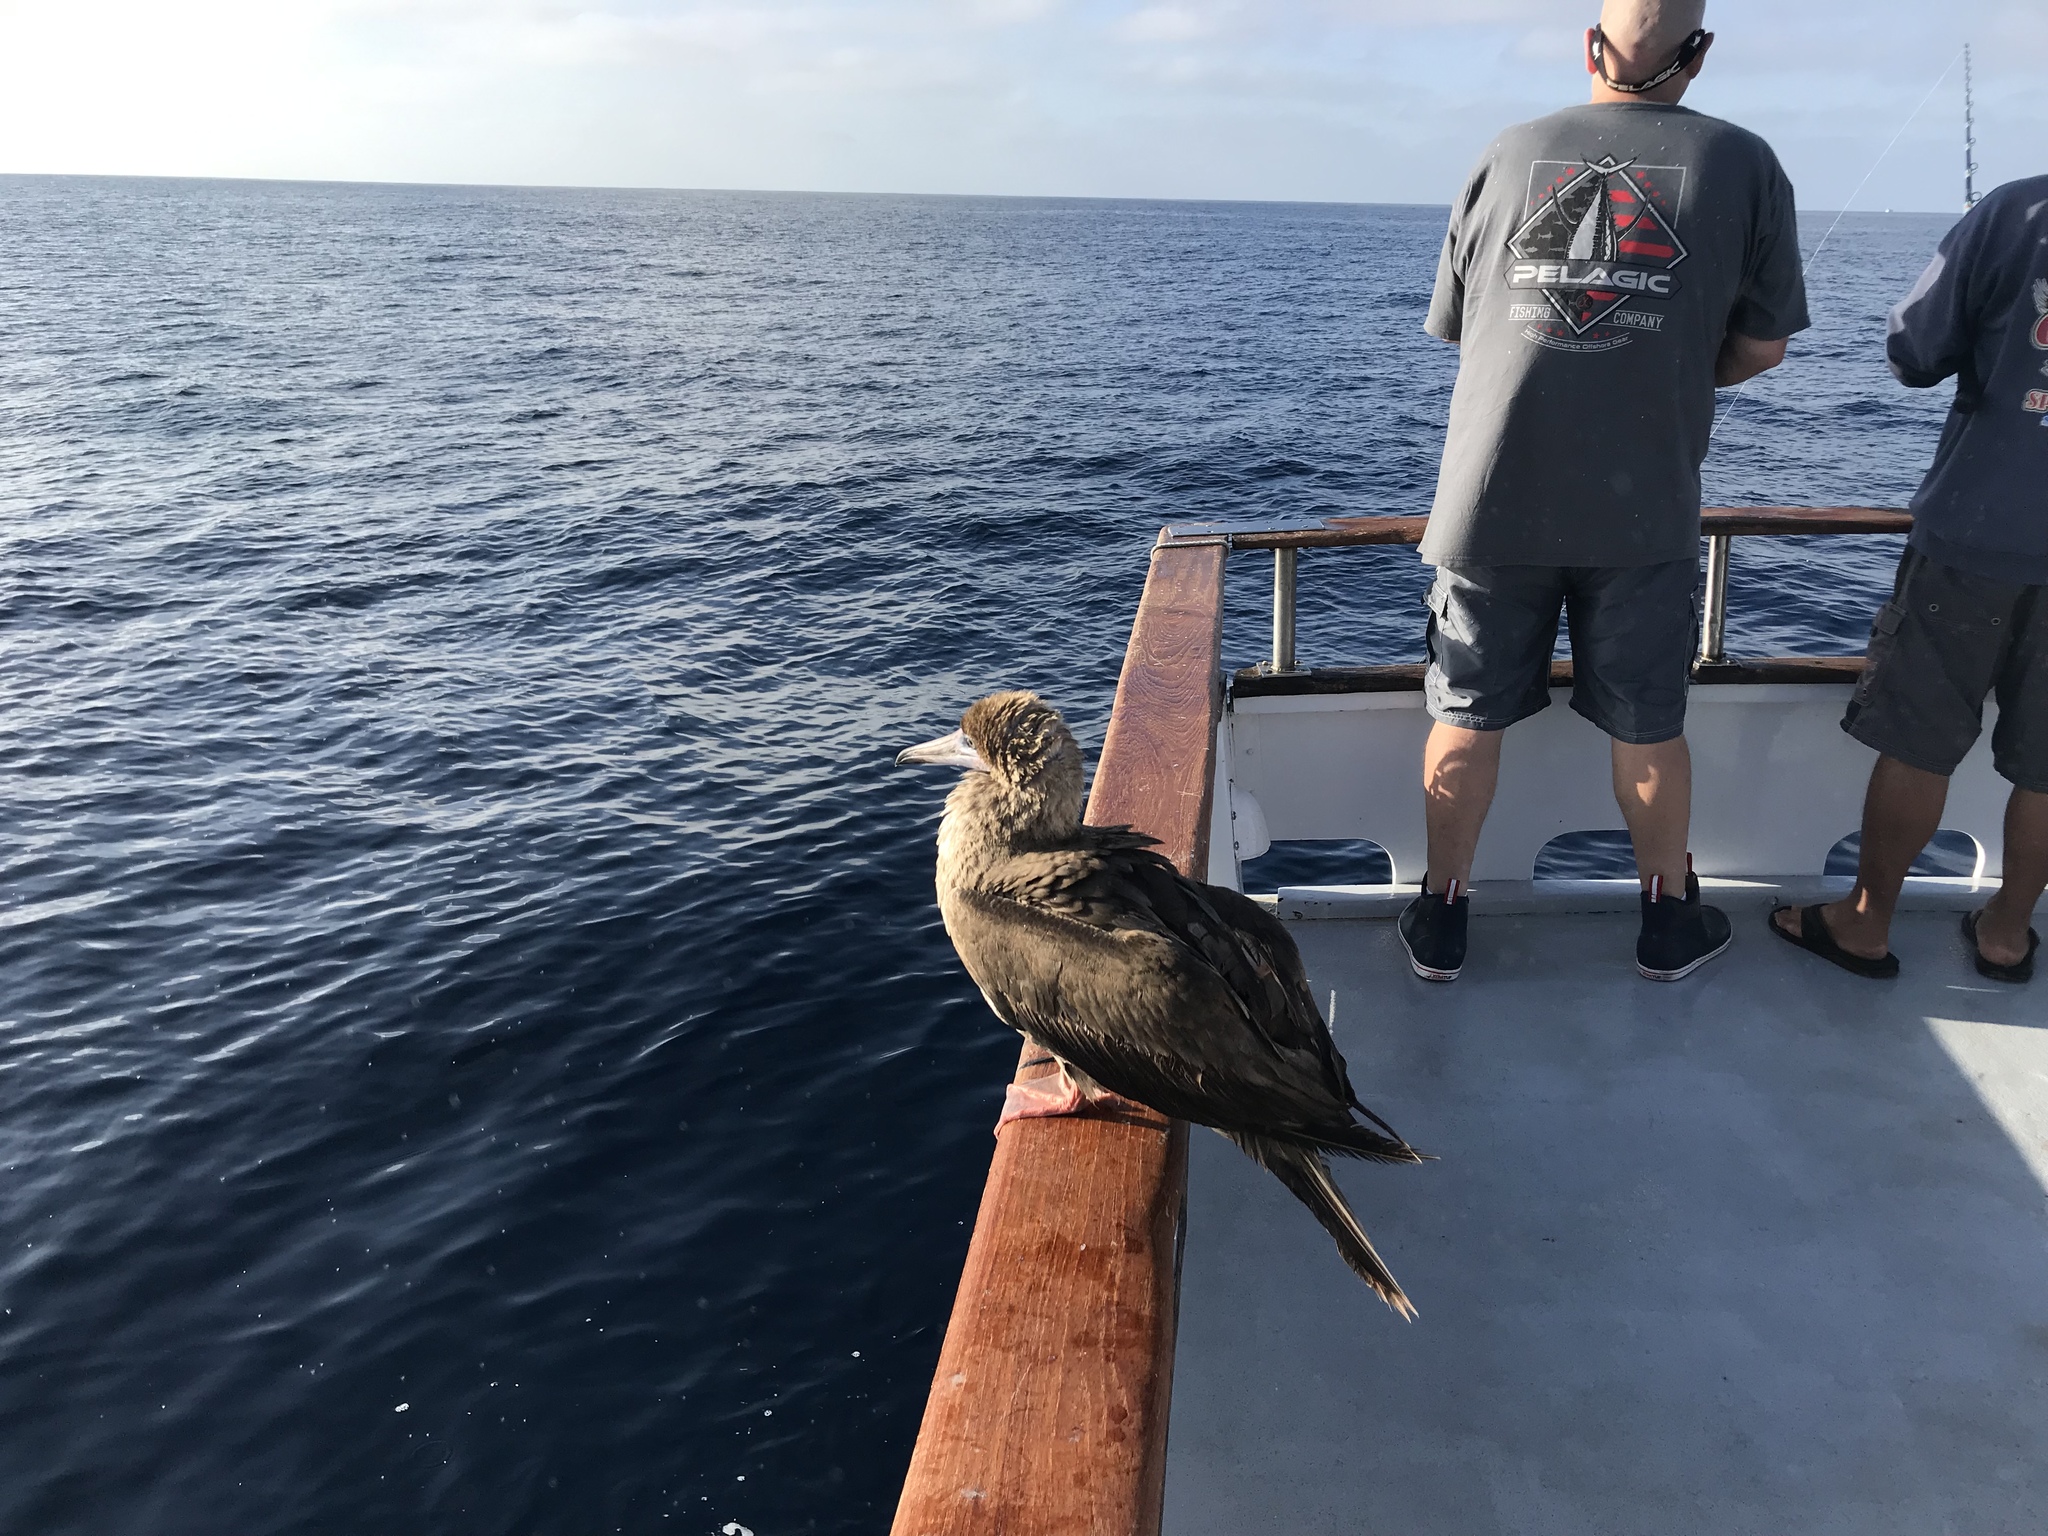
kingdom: Animalia
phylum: Chordata
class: Aves
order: Suliformes
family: Sulidae
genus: Sula
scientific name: Sula sula
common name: Red-footed booby
